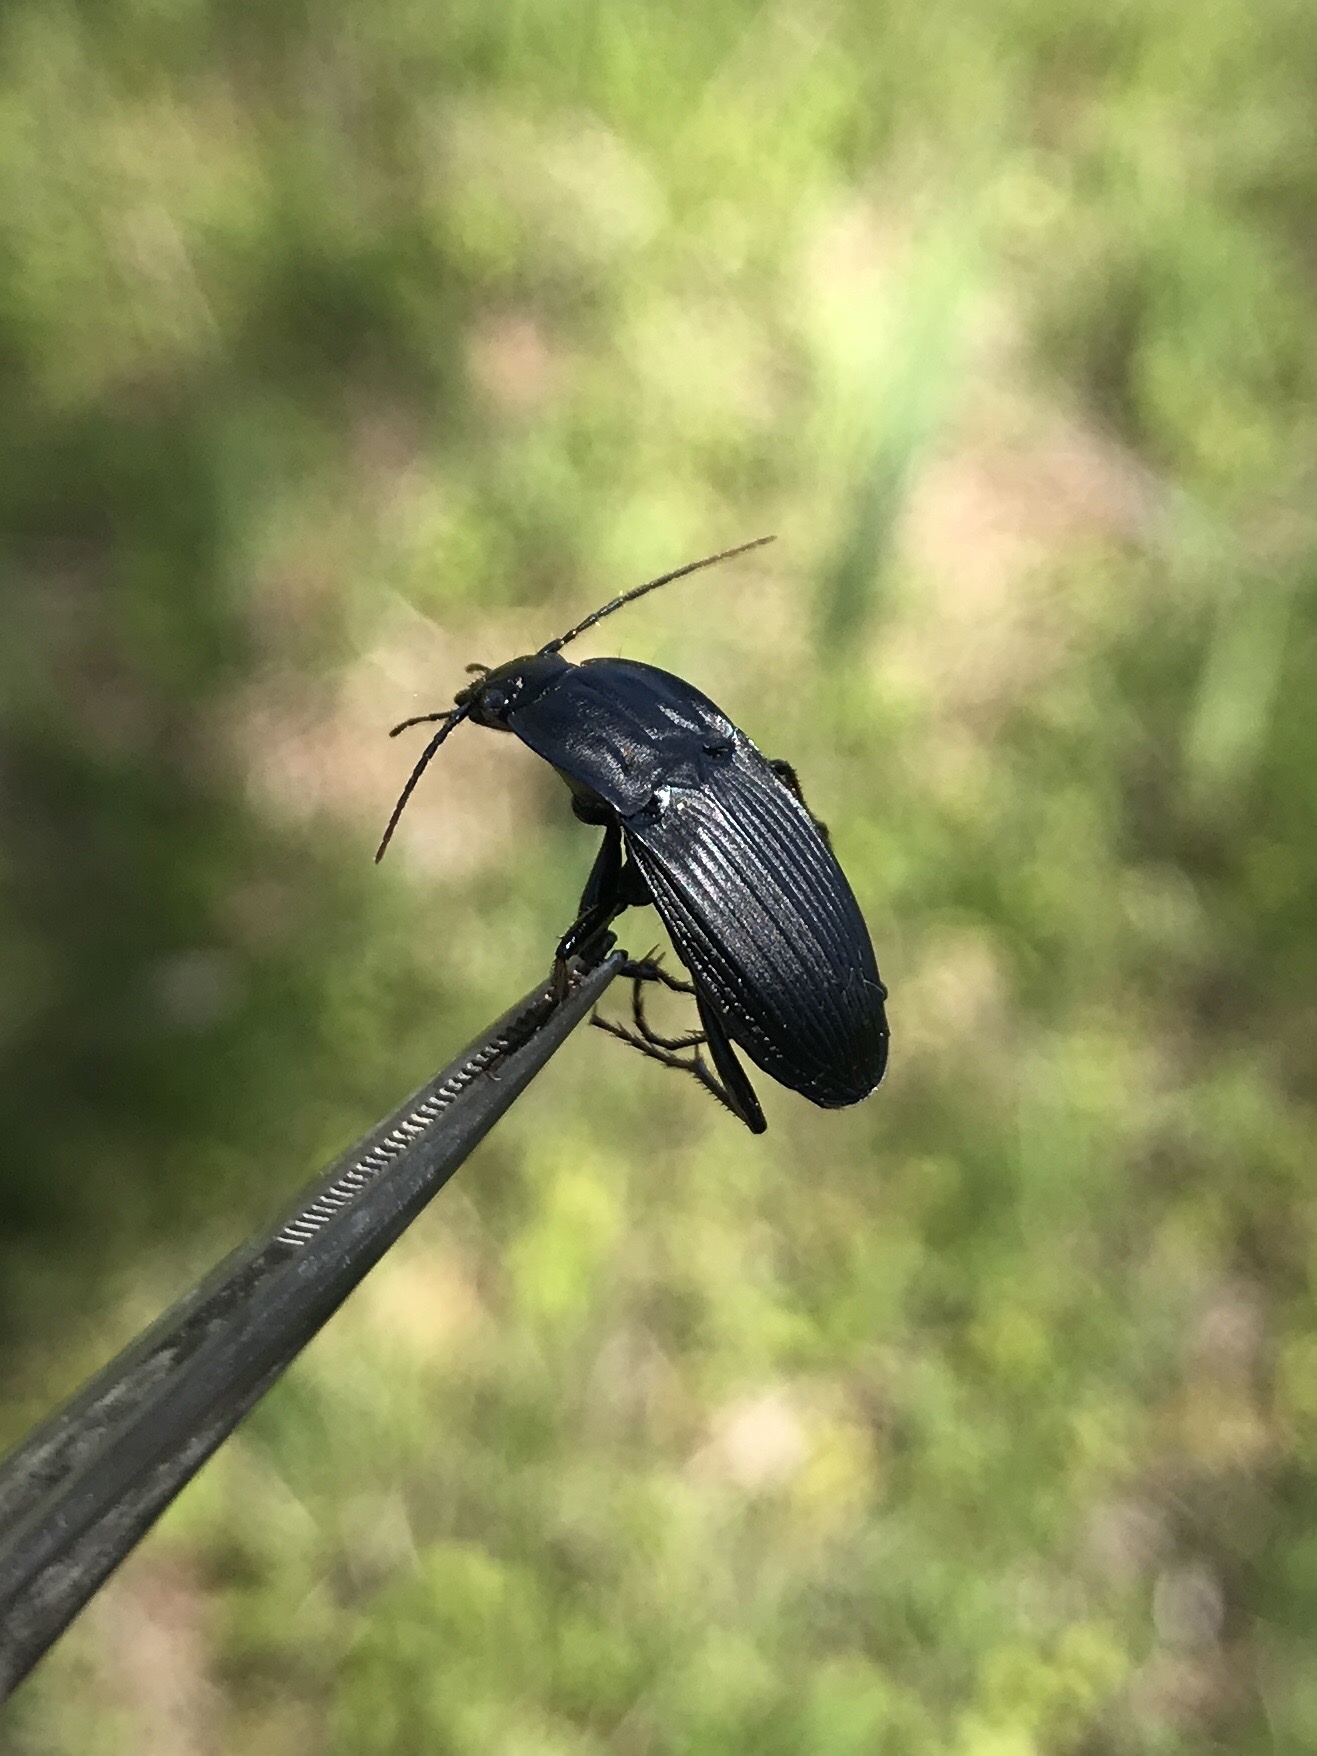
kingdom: Animalia
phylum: Arthropoda
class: Insecta
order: Coleoptera
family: Carabidae
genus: Dicaelus
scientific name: Dicaelus elongatus
